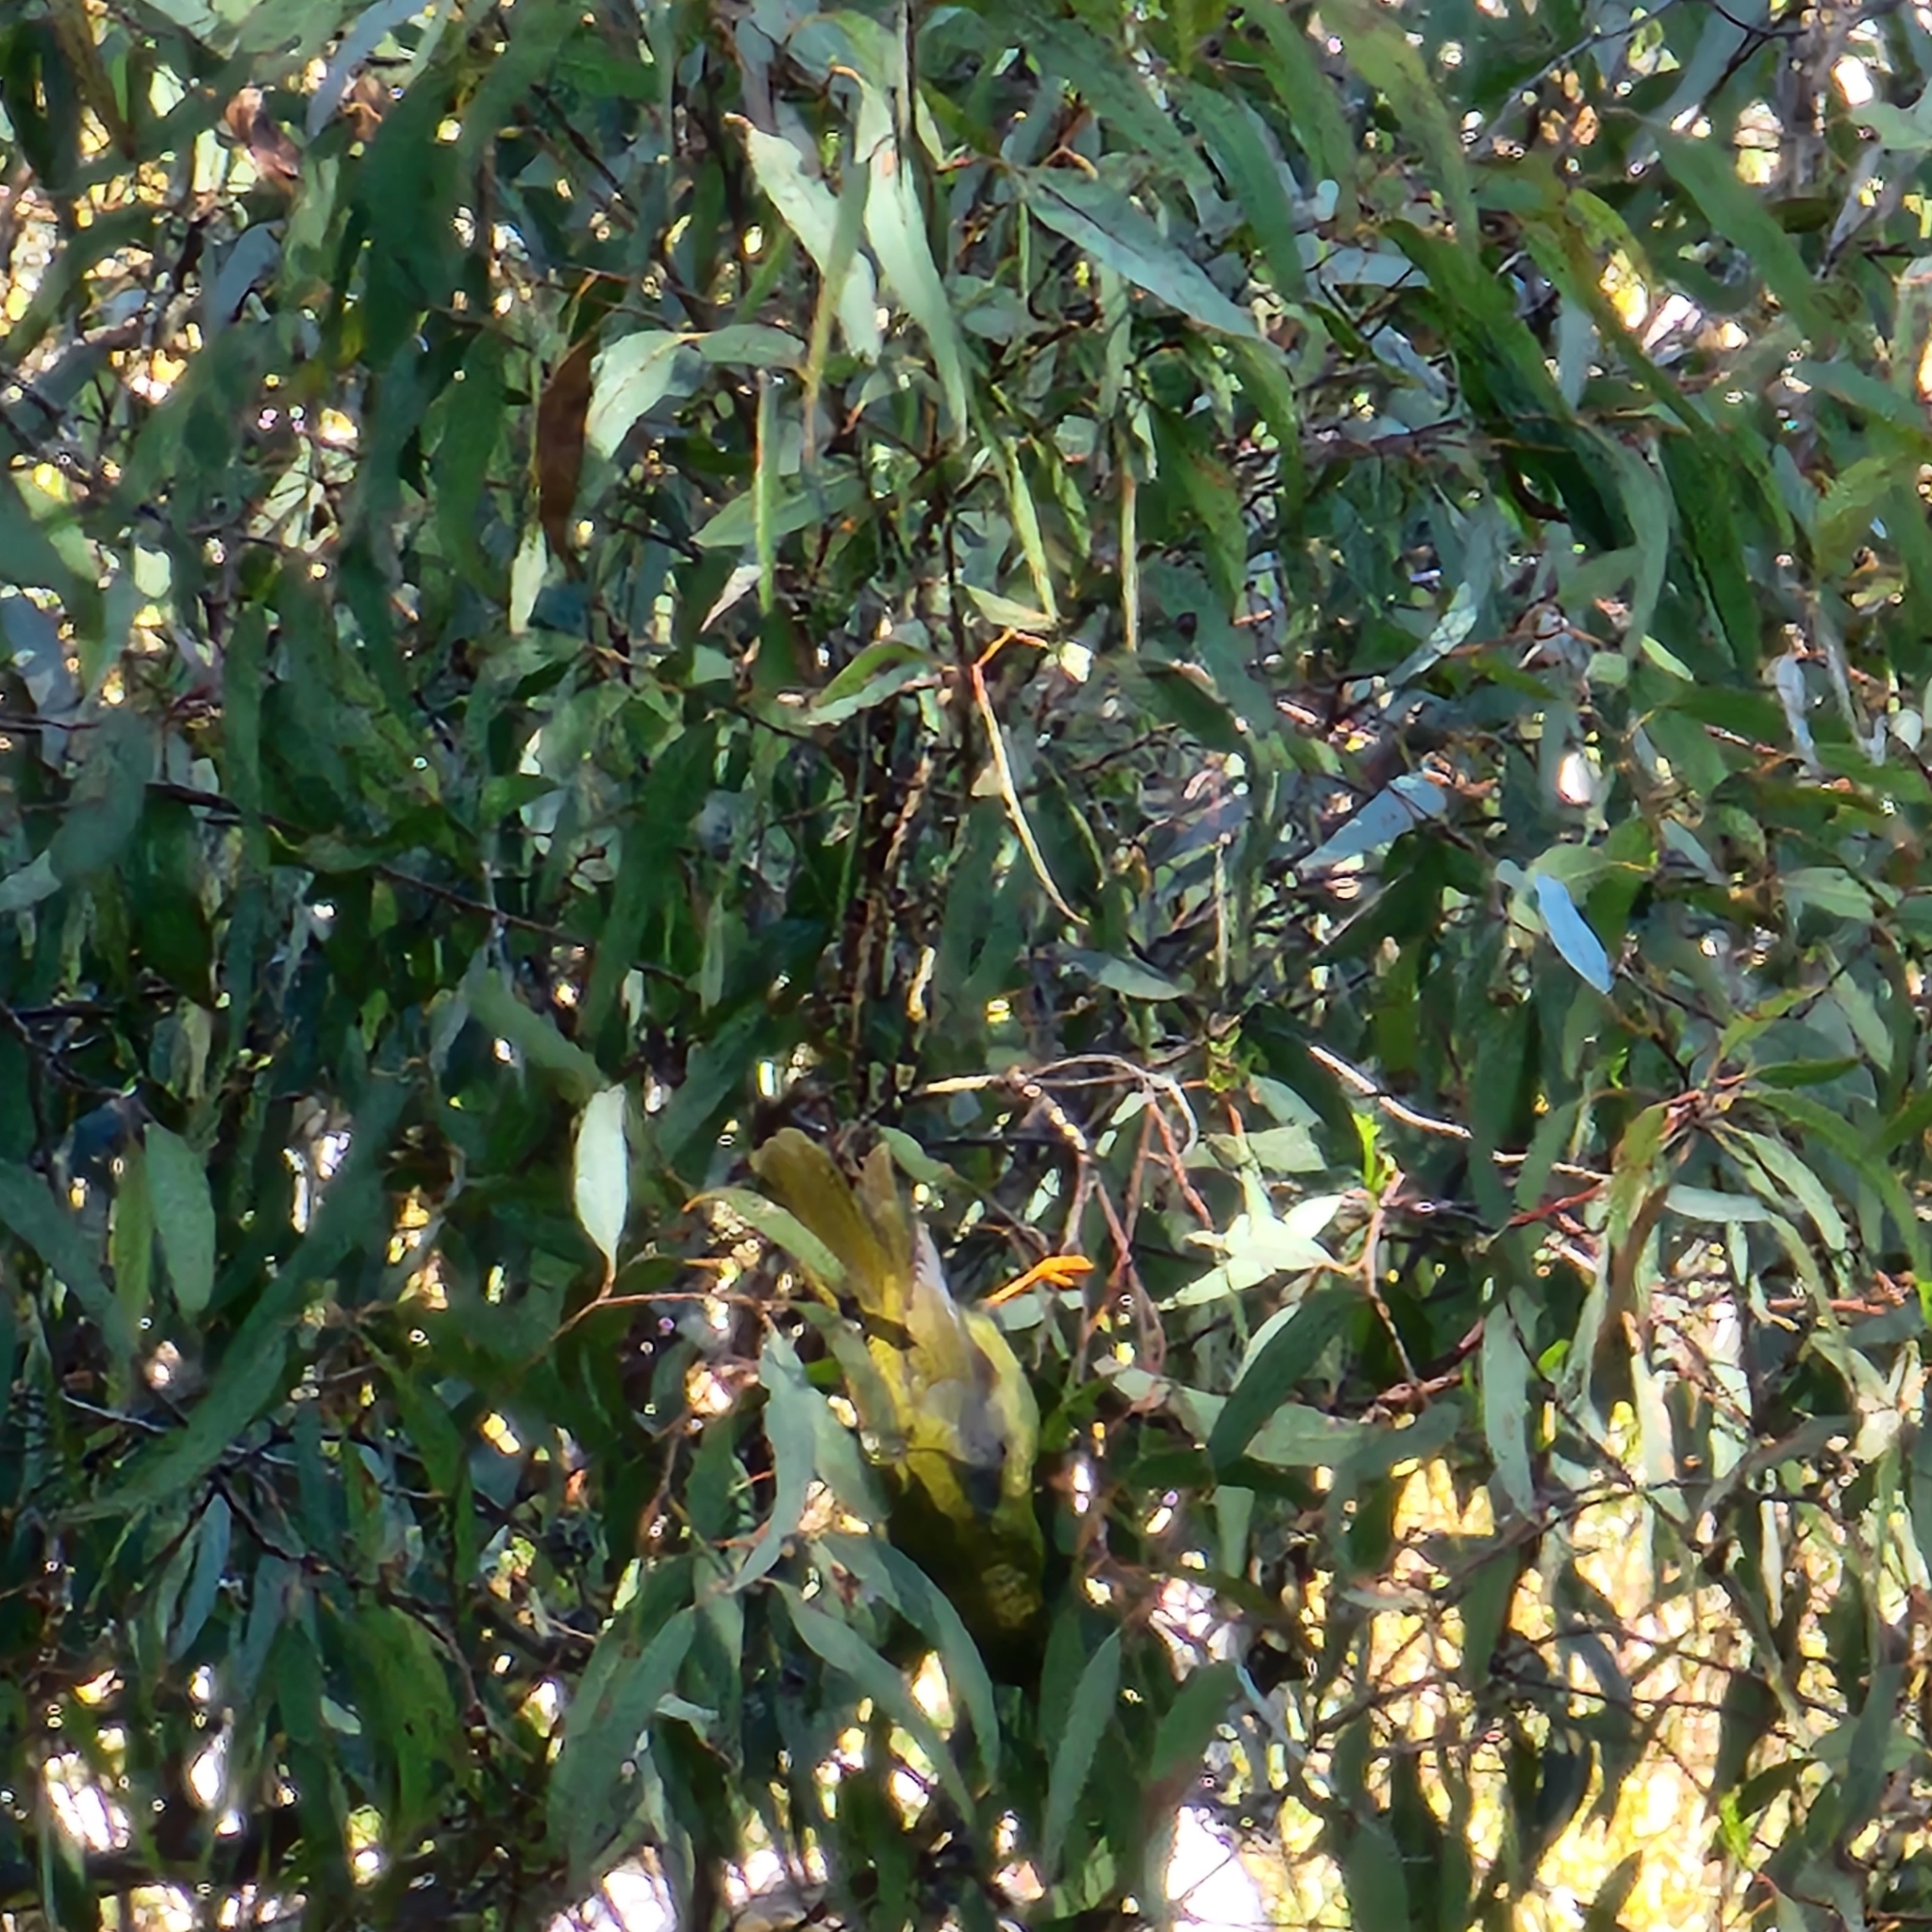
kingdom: Animalia
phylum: Chordata
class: Aves
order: Passeriformes
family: Meliphagidae
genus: Manorina
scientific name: Manorina melanophrys
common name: Bell miner
